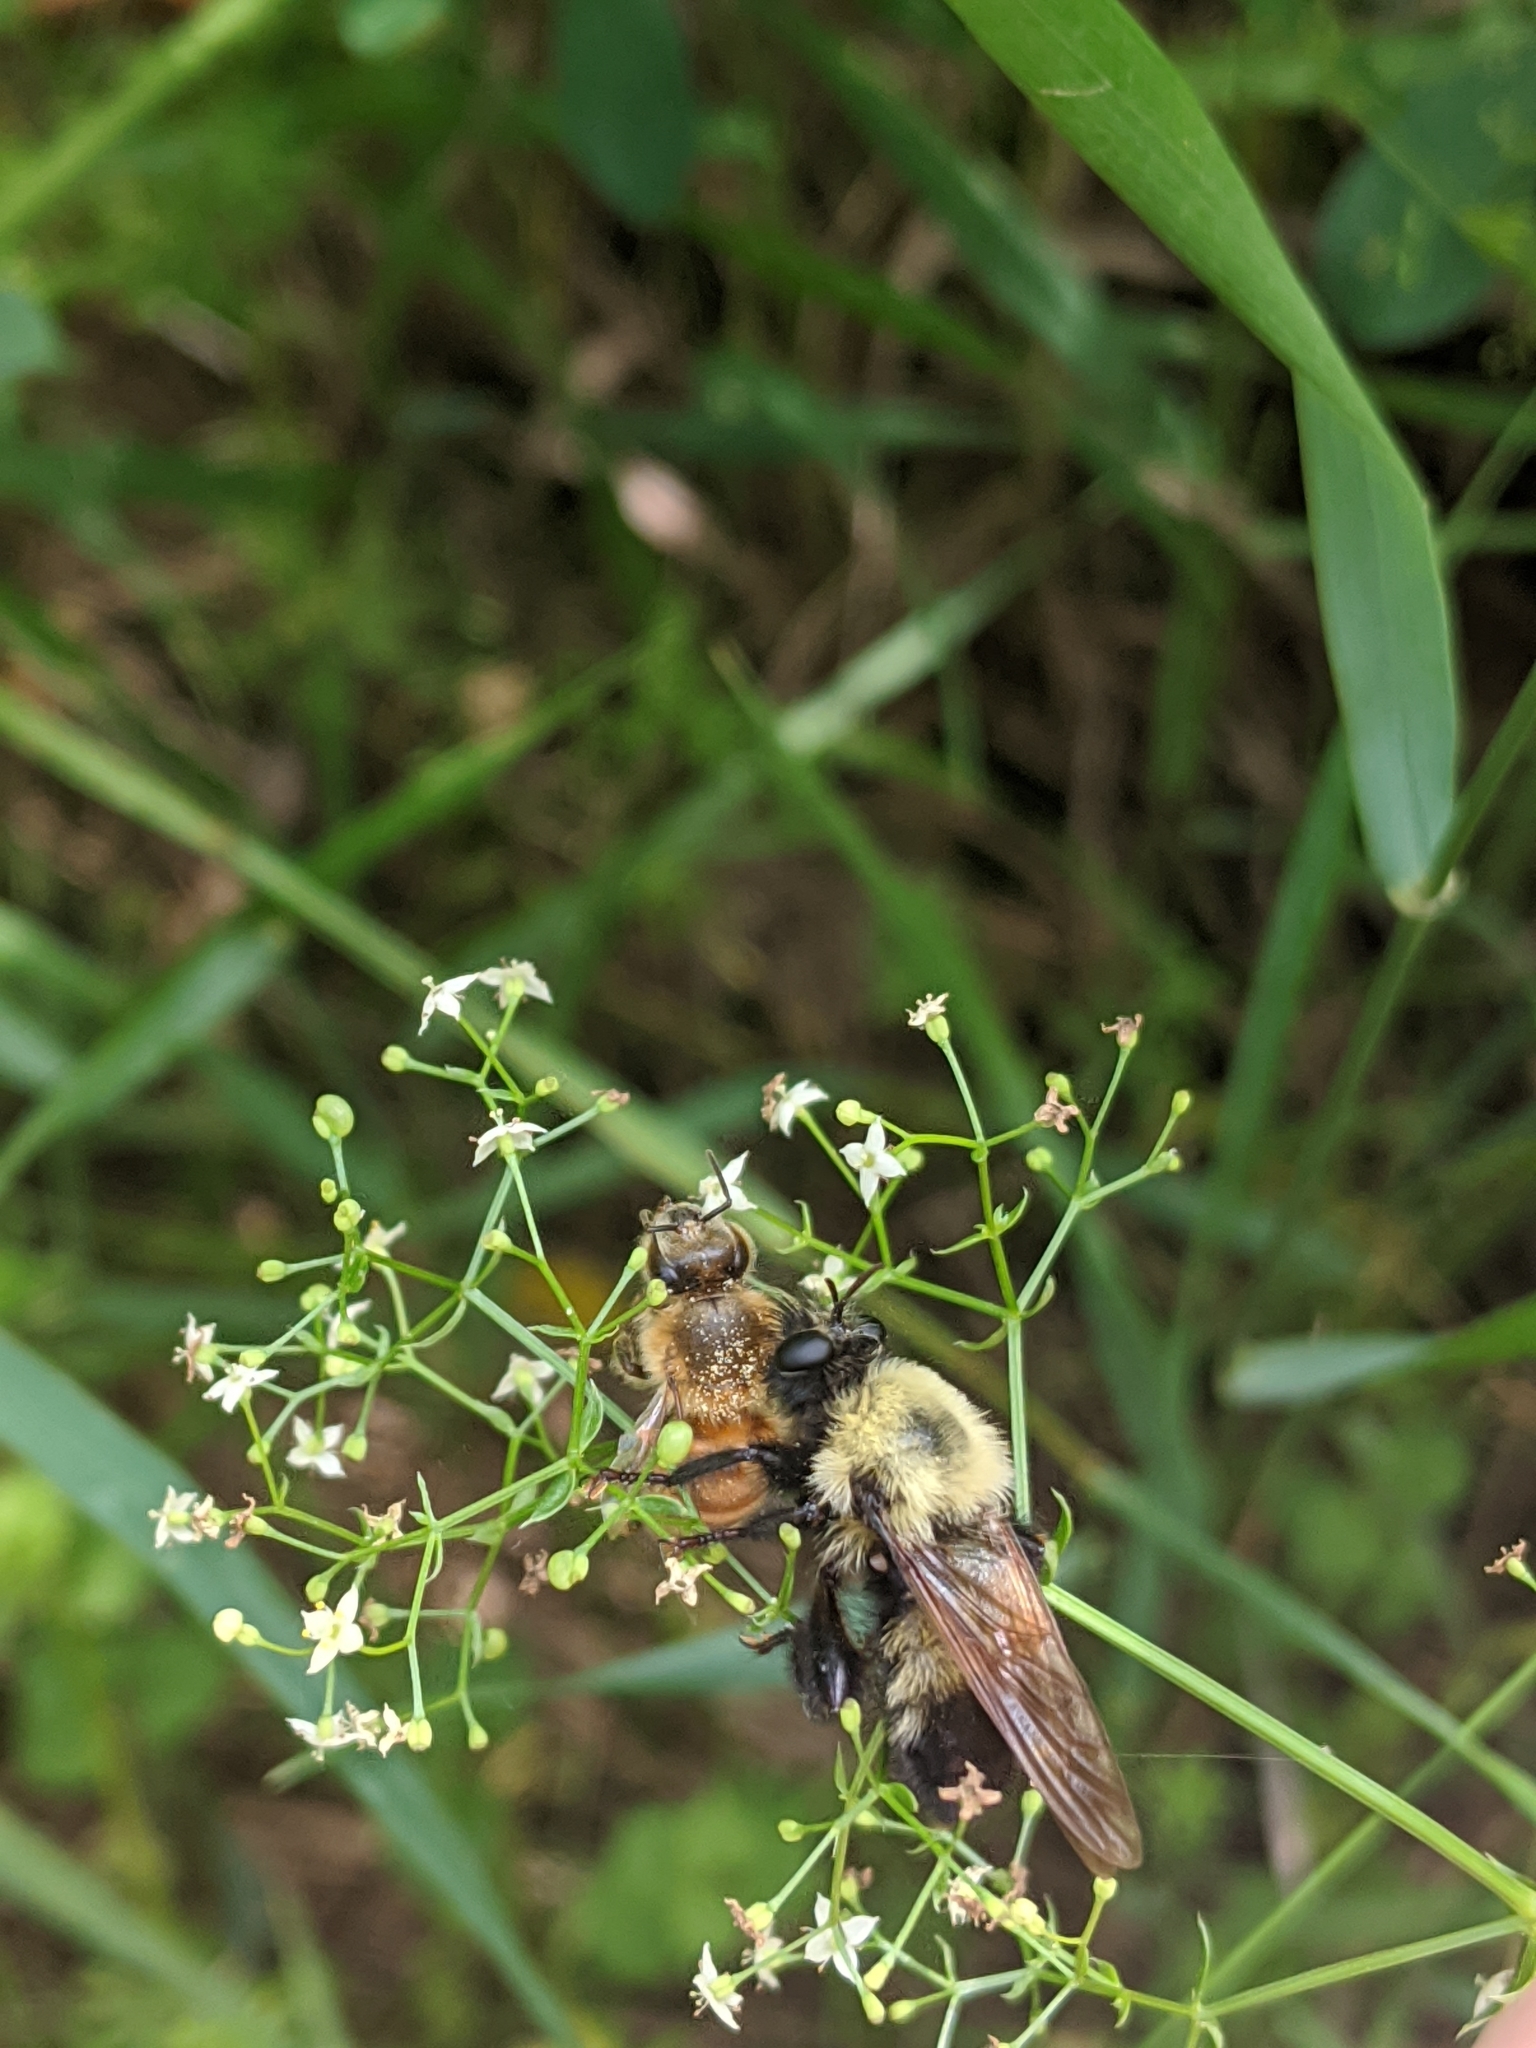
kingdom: Animalia
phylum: Arthropoda
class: Insecta
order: Diptera
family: Asilidae
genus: Laphria
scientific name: Laphria thoracica
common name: Bumble bee mimic robber fly
